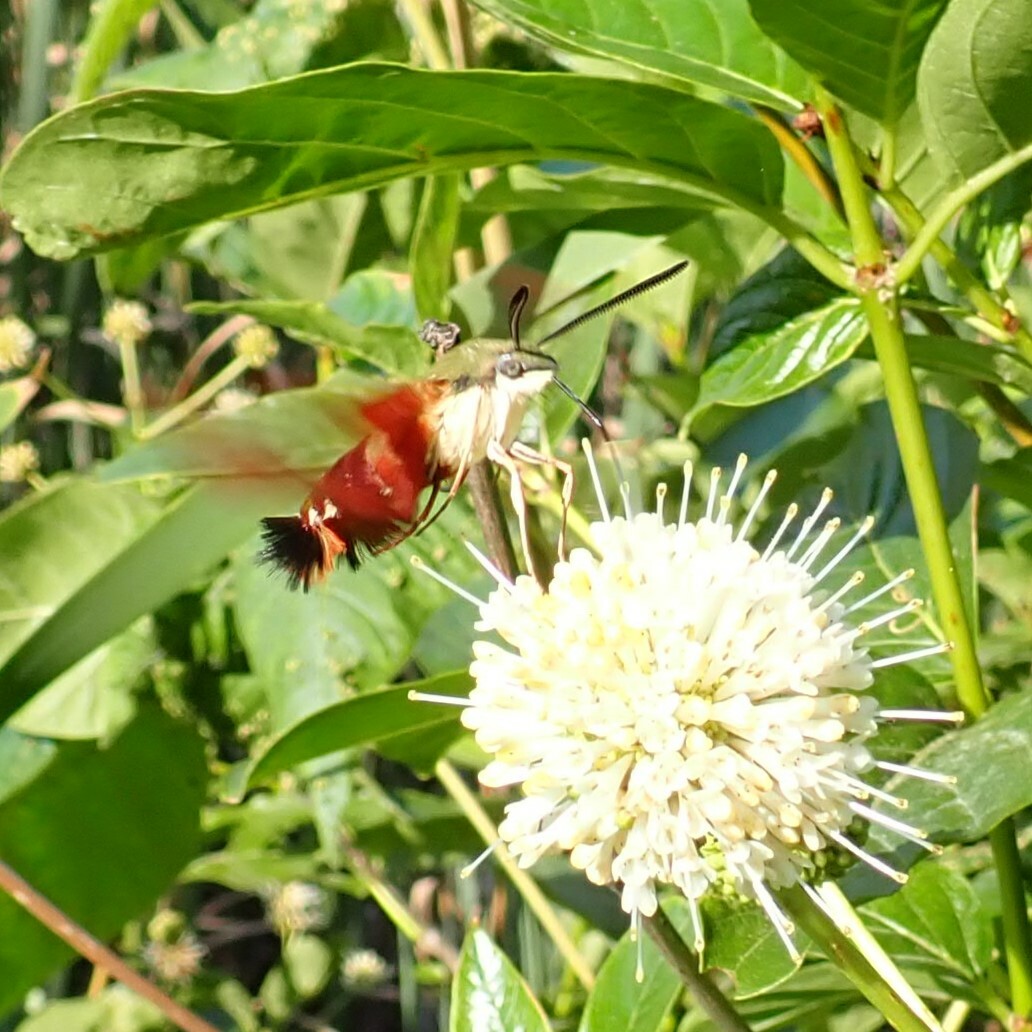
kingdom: Animalia
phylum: Arthropoda
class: Insecta
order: Lepidoptera
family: Sphingidae
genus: Hemaris
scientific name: Hemaris thysbe
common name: Common clear-wing
